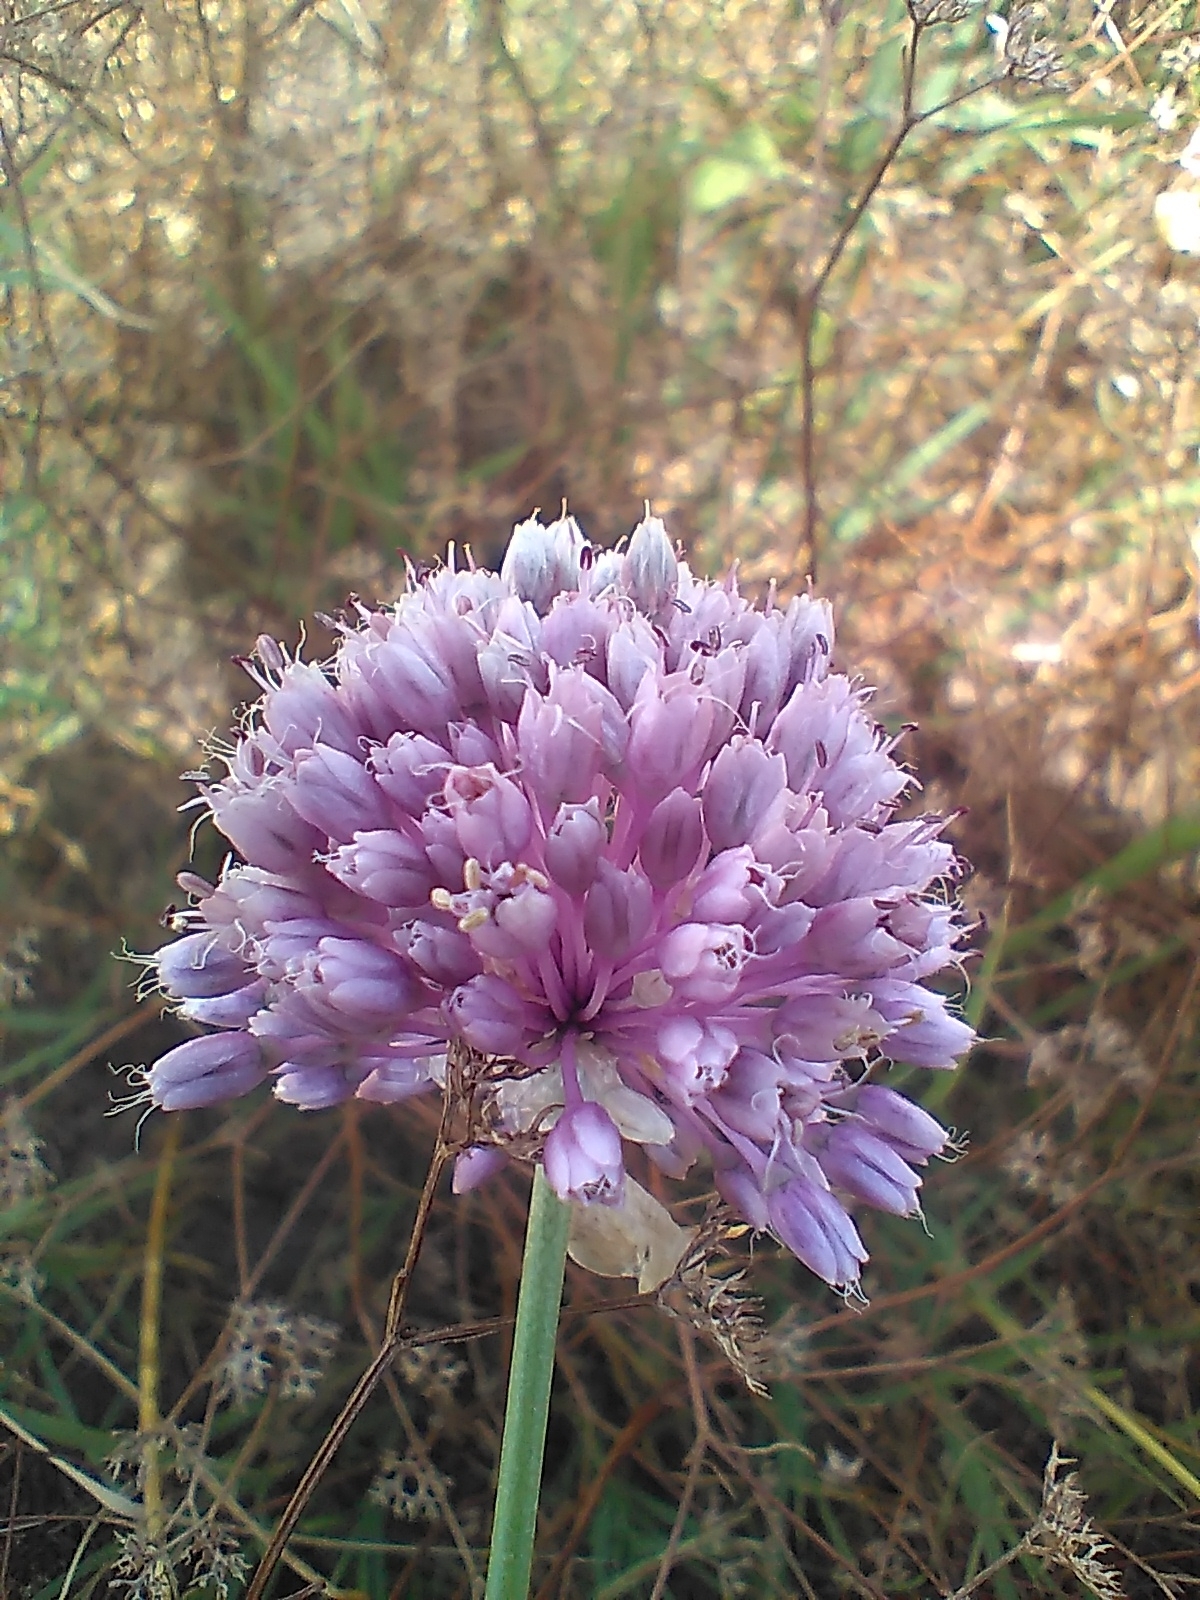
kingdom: Plantae
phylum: Tracheophyta
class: Liliopsida
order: Asparagales
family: Amaryllidaceae
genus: Allium
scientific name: Allium vineale
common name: Crow garlic
